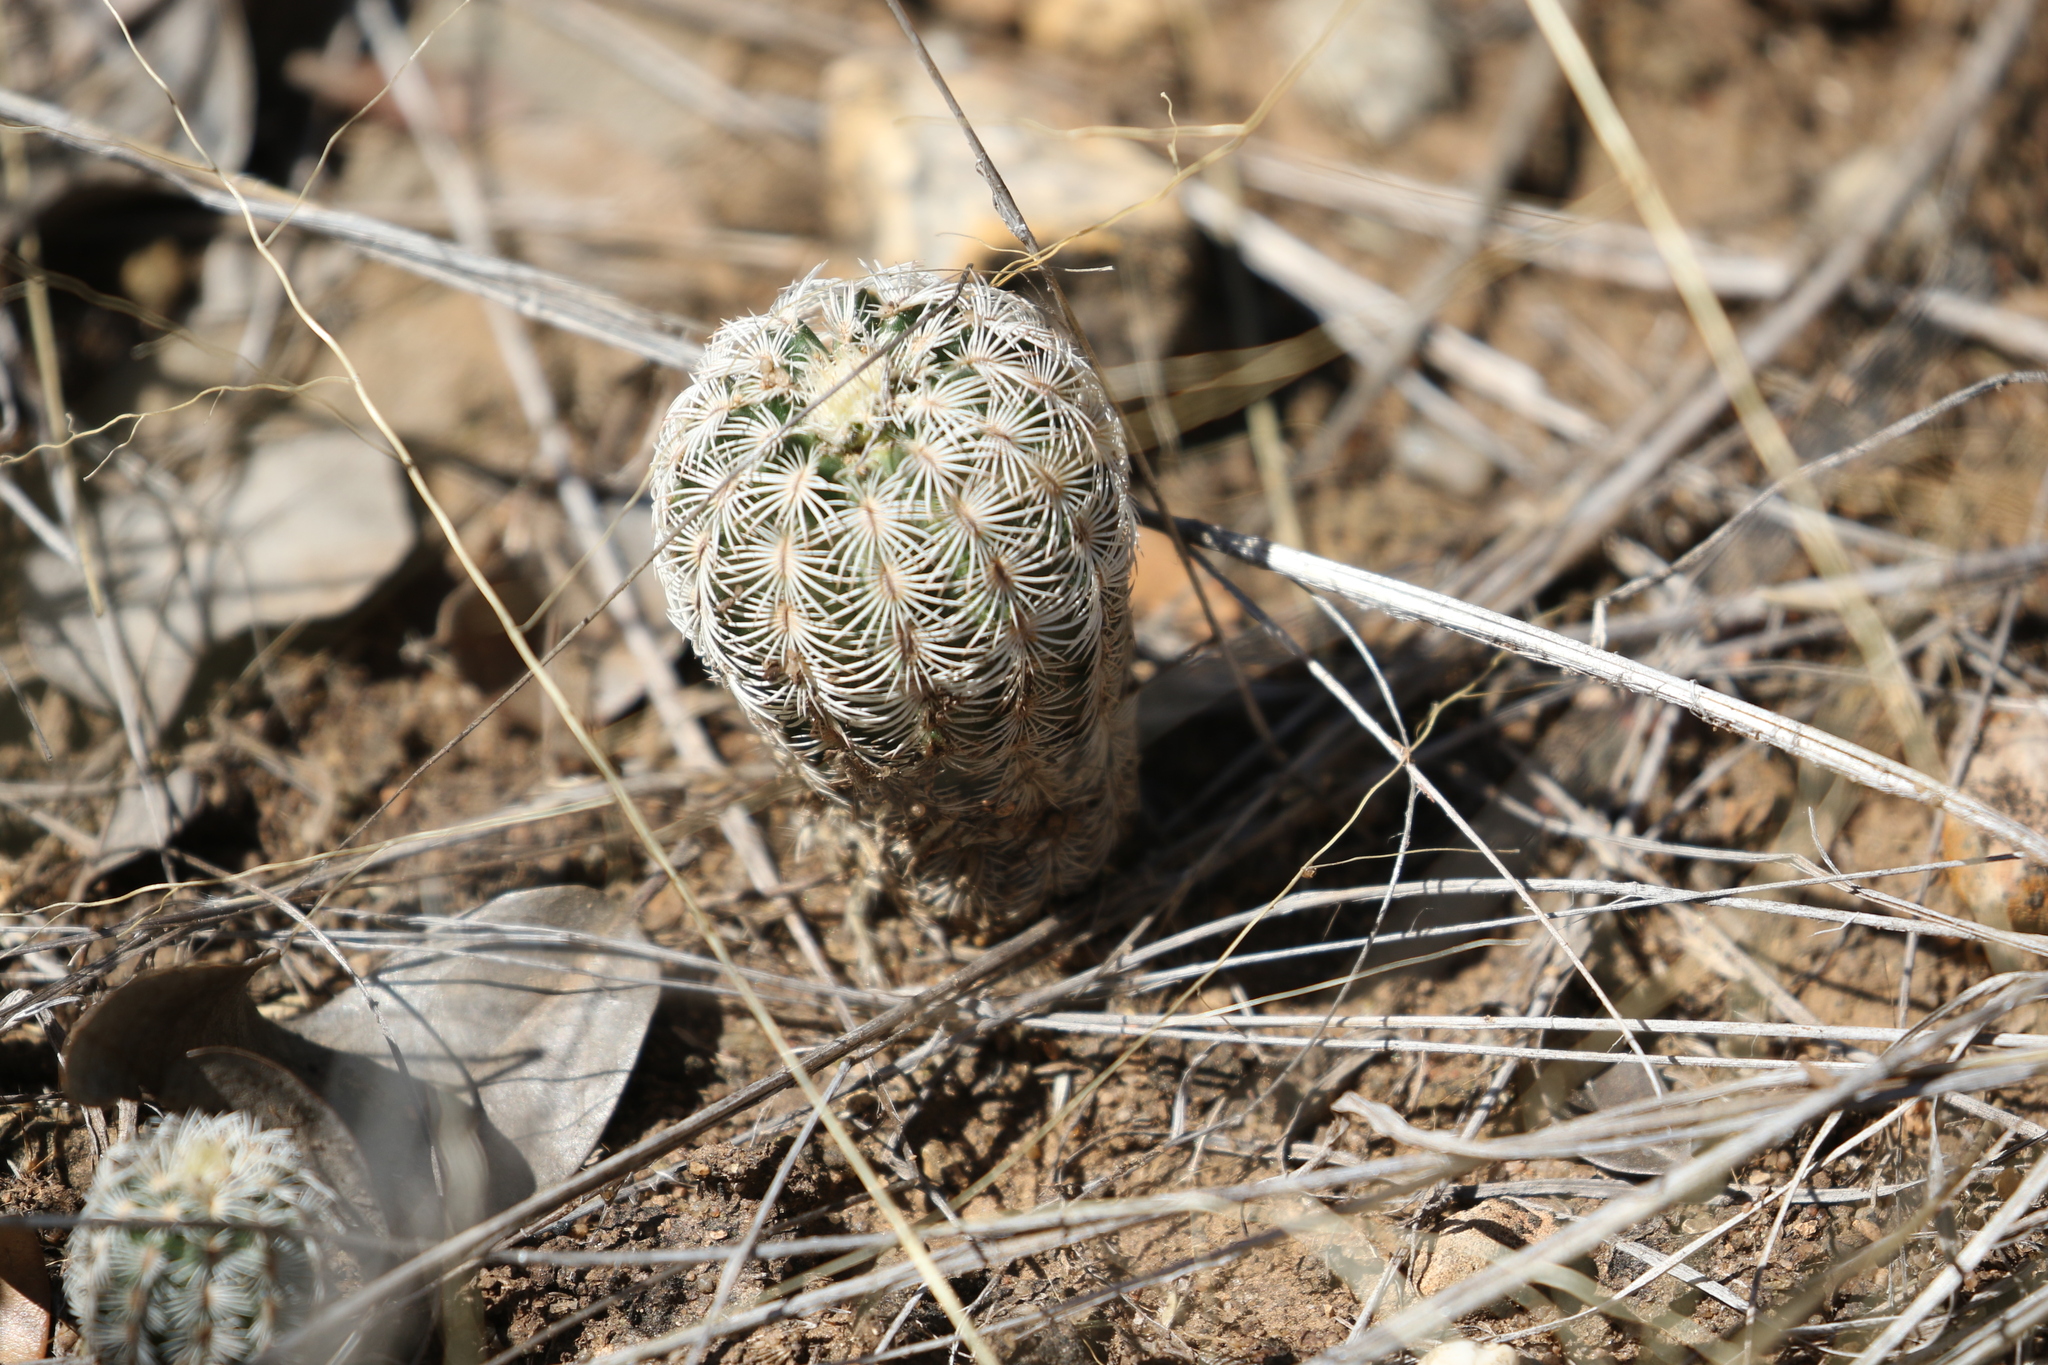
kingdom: Plantae
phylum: Tracheophyta
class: Magnoliopsida
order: Caryophyllales
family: Cactaceae
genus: Echinocereus
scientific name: Echinocereus reichenbachii
